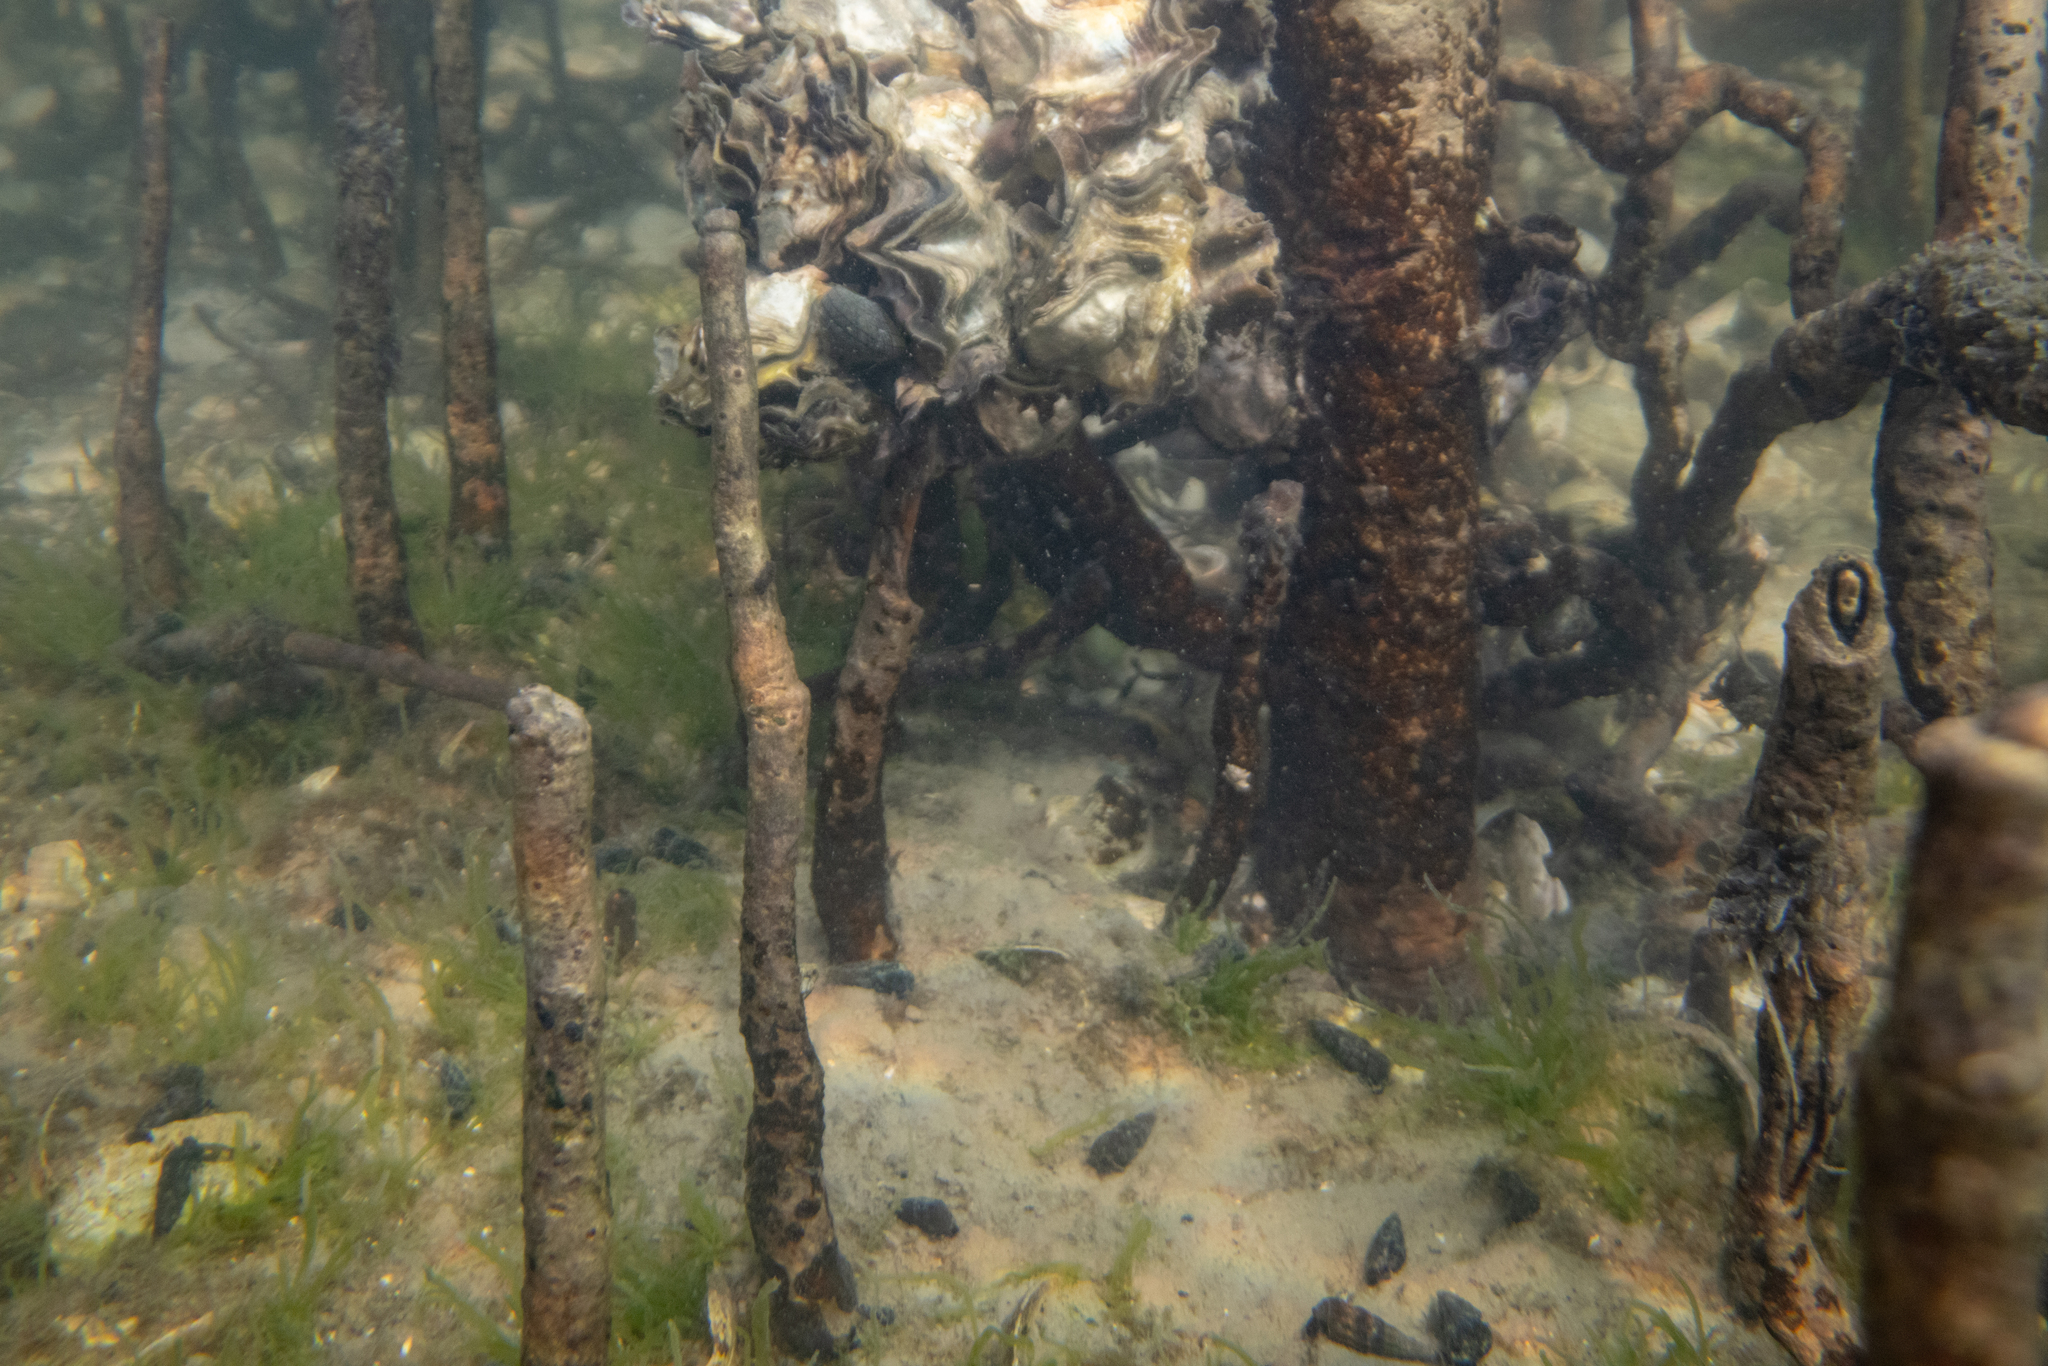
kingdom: Animalia
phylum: Mollusca
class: Gastropoda
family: Batillariidae
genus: Zeacumantus
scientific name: Zeacumantus lutulentus
